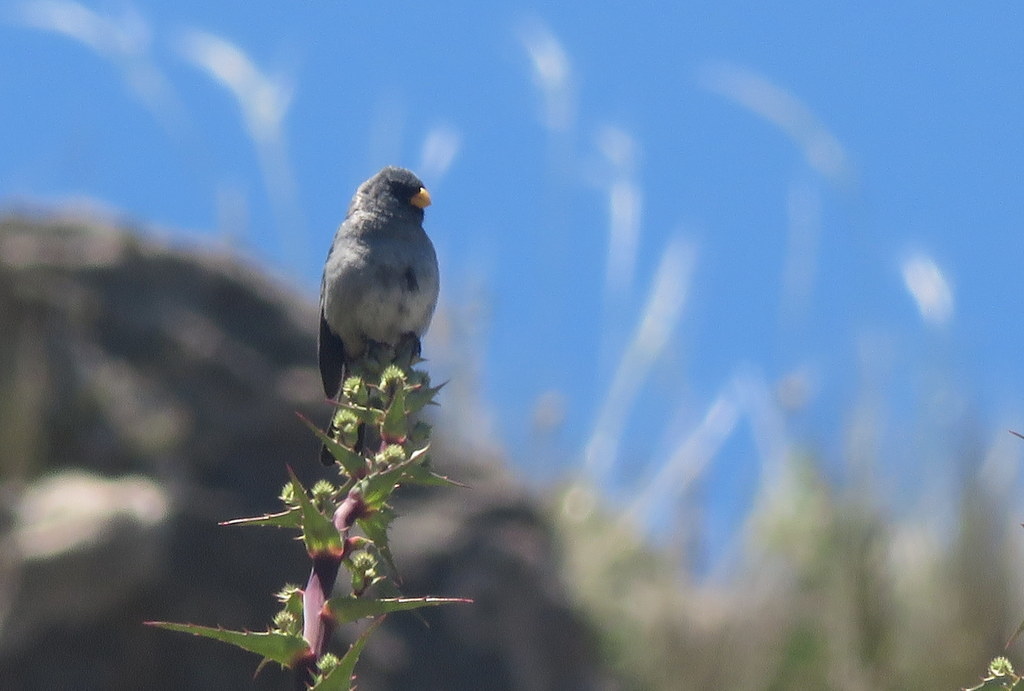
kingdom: Animalia
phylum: Chordata
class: Aves
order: Passeriformes
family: Thraupidae
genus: Catamenia
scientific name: Catamenia analis
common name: Band-tailed seedeater
